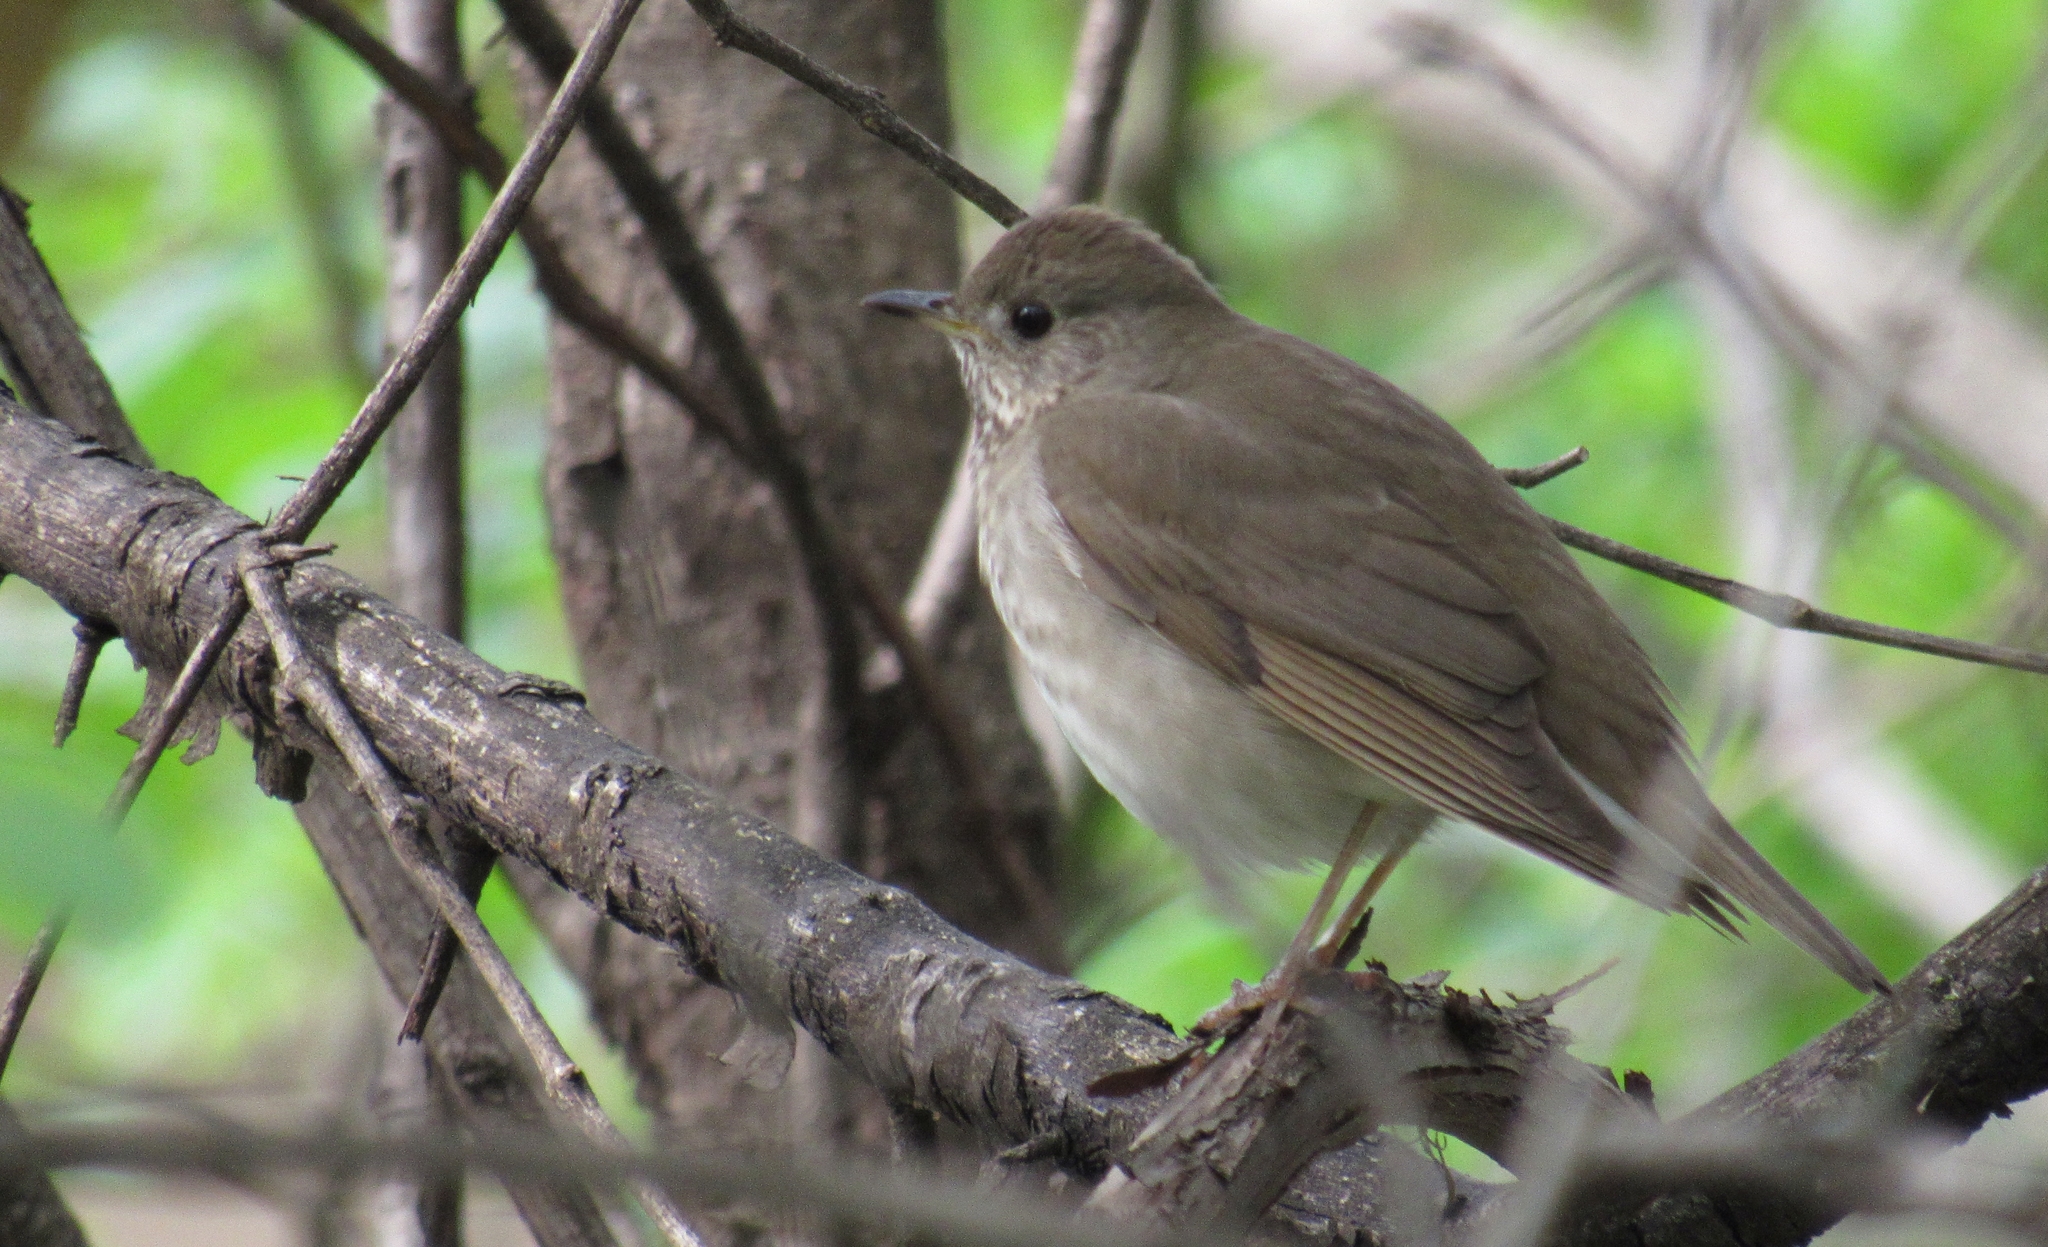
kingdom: Animalia
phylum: Chordata
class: Aves
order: Passeriformes
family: Turdidae
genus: Catharus
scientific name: Catharus minimus
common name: Grey-cheeked thrush
